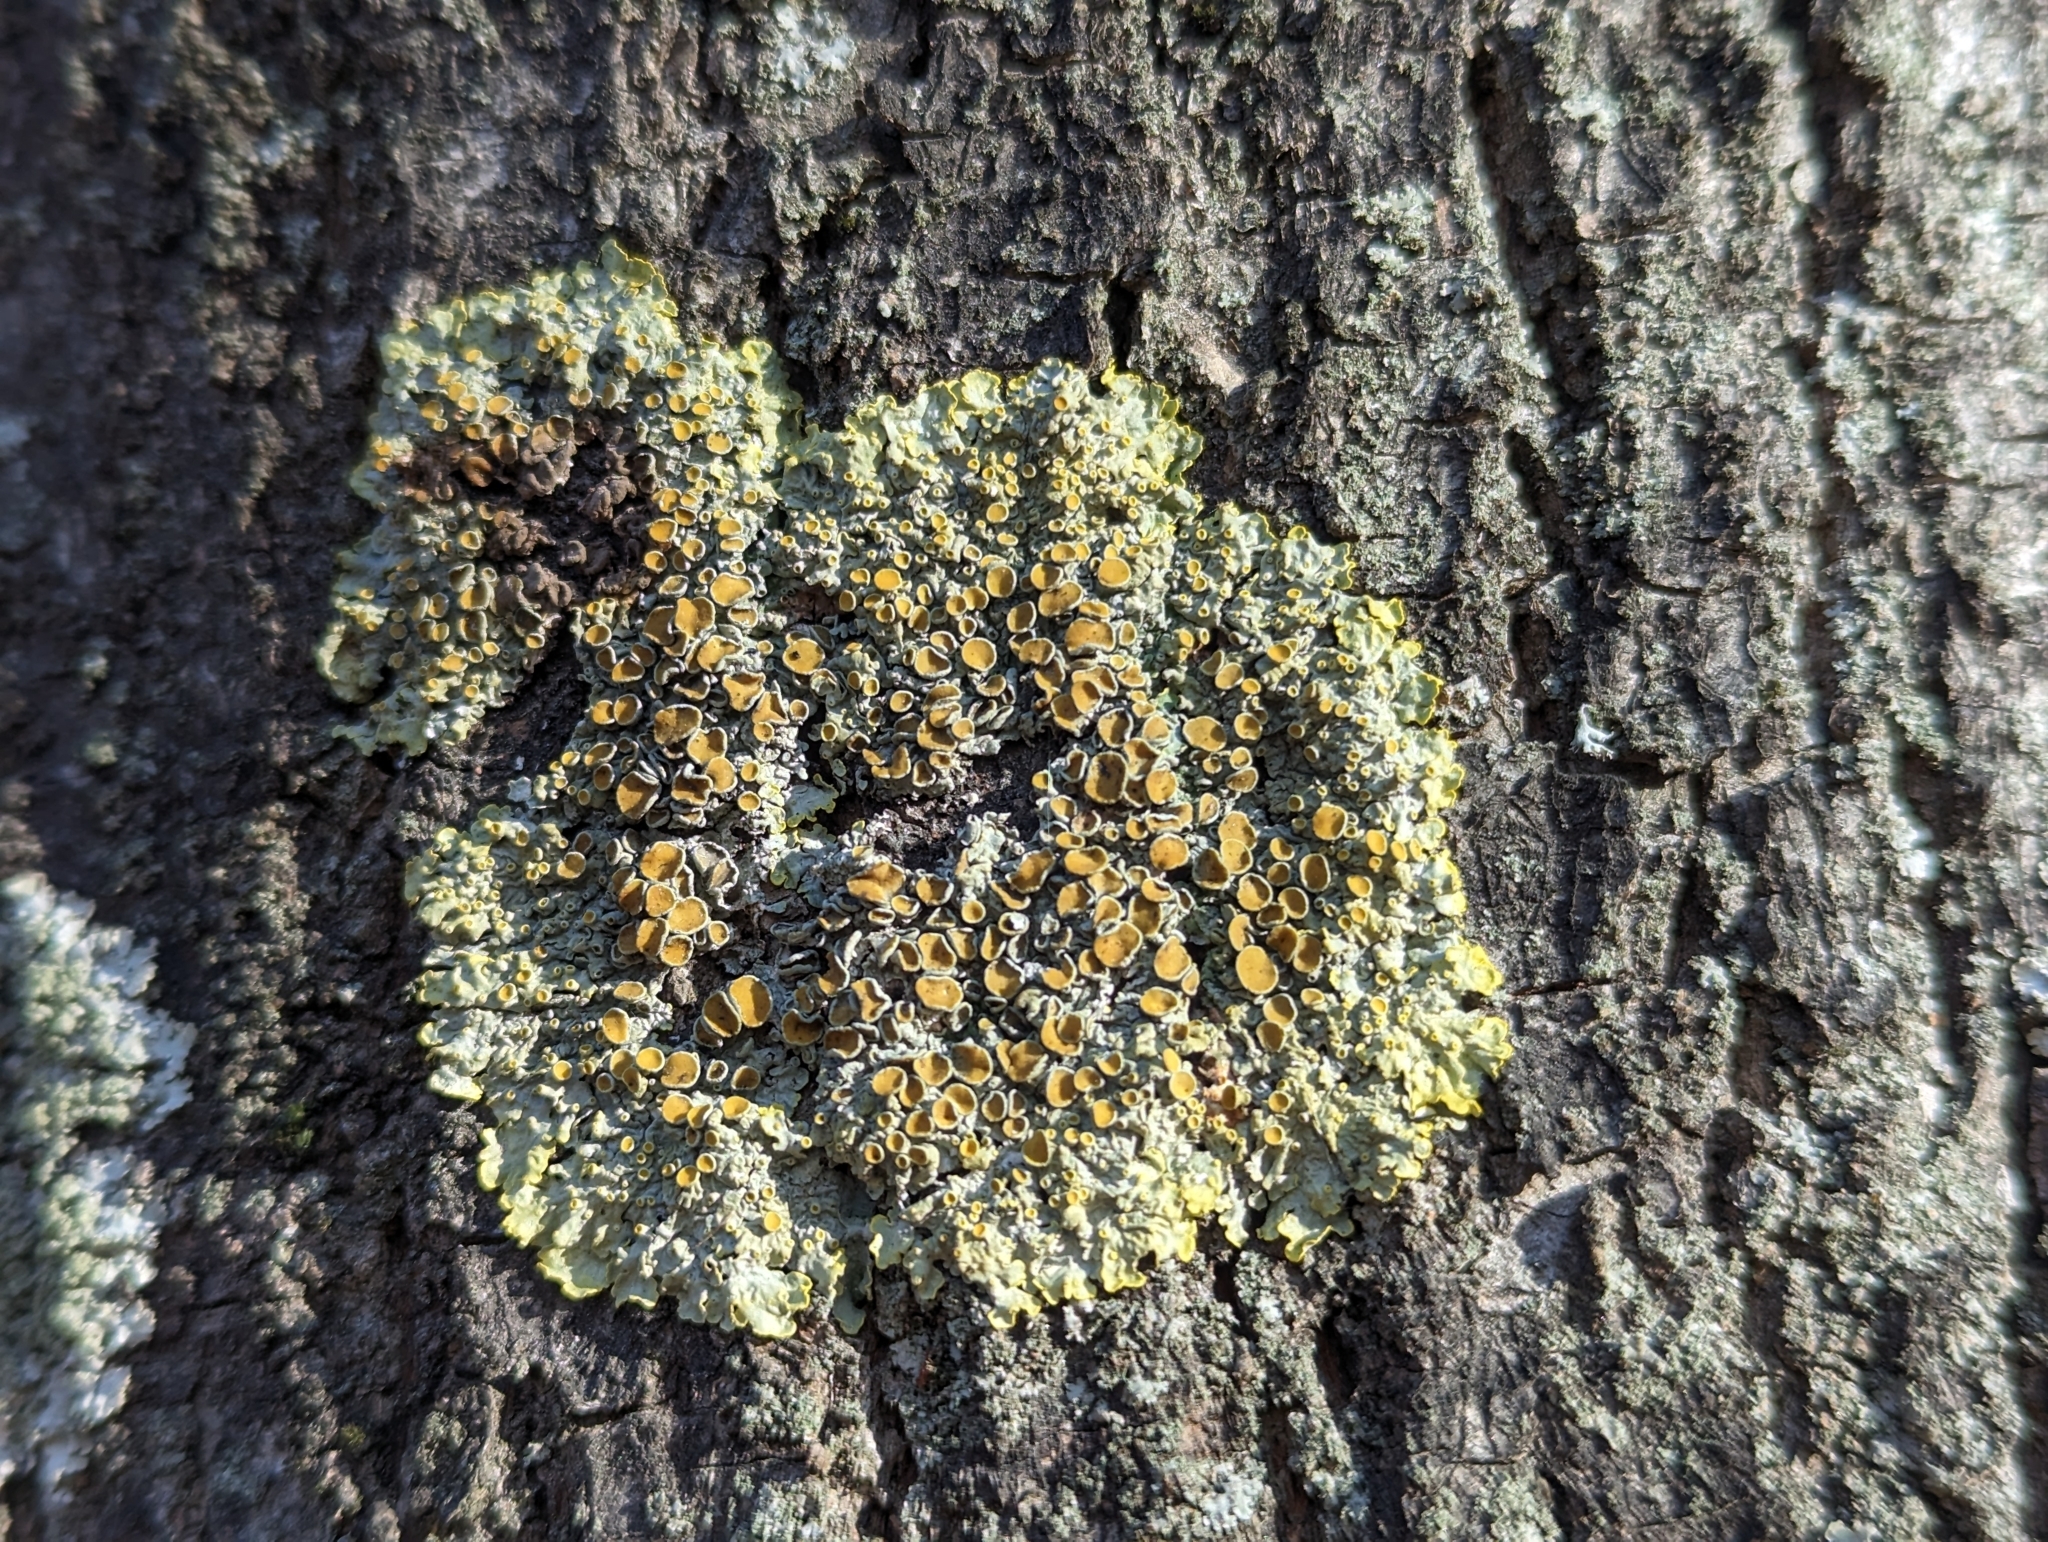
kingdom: Fungi
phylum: Ascomycota
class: Lecanoromycetes
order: Teloschistales
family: Teloschistaceae
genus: Xanthoria
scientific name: Xanthoria parietina
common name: Common orange lichen
